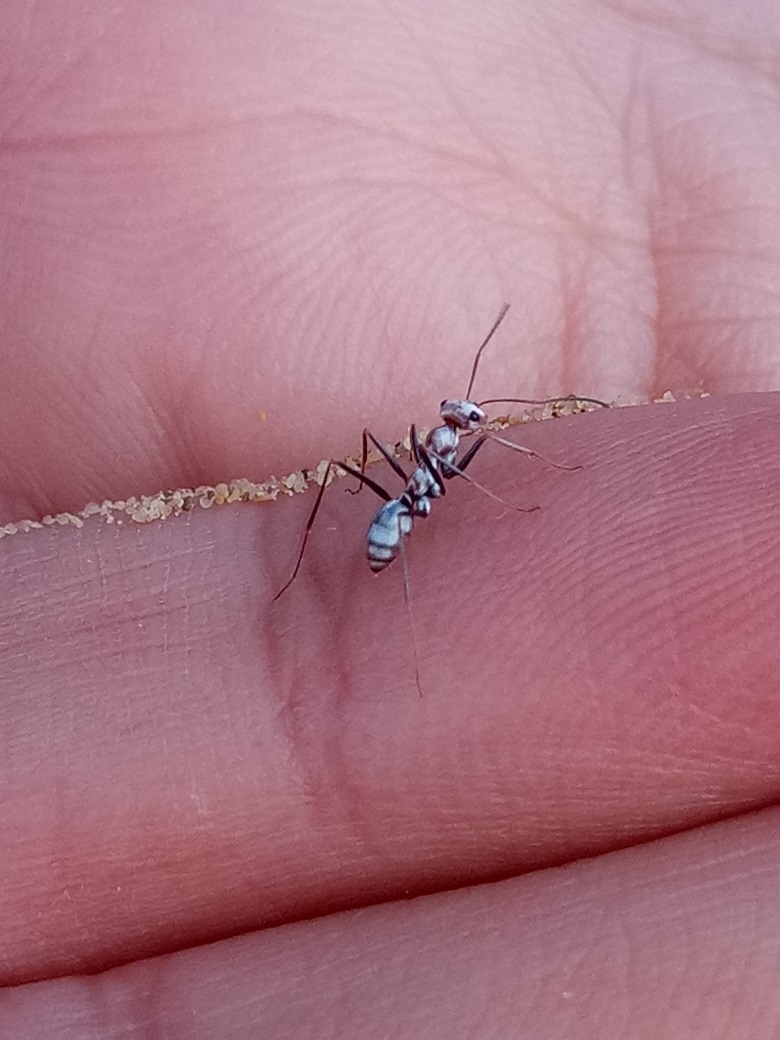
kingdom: Animalia
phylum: Arthropoda
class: Insecta
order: Hymenoptera
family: Formicidae
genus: Cataglyphis
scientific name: Cataglyphis bombycinus
